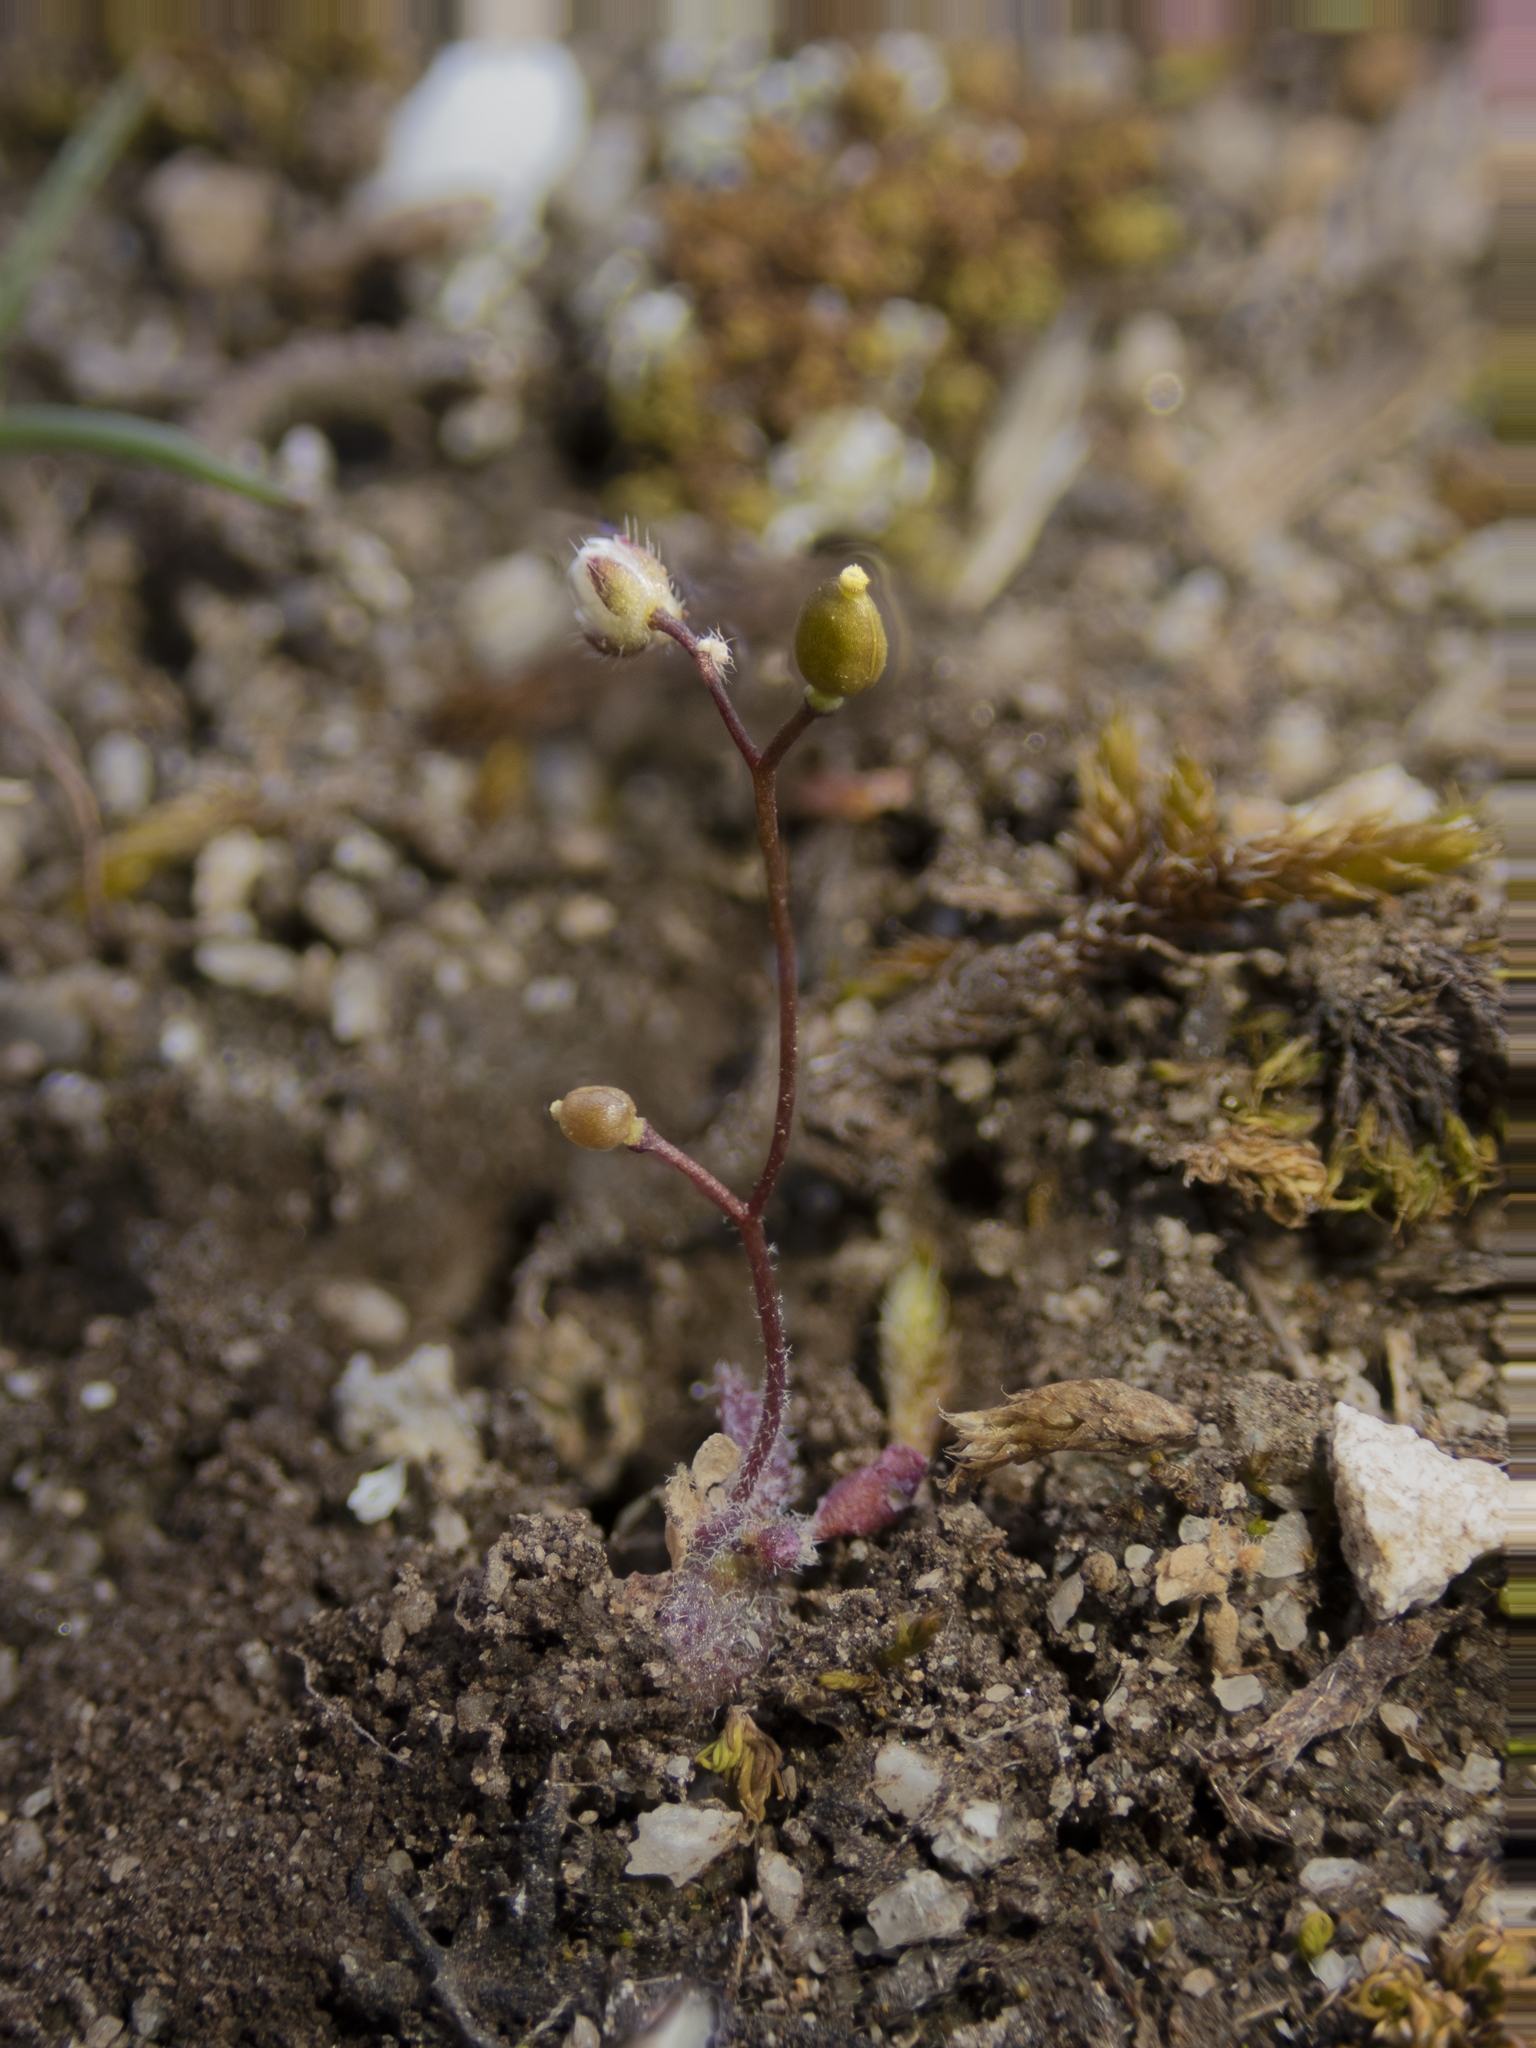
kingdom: Plantae
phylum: Tracheophyta
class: Magnoliopsida
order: Brassicales
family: Brassicaceae
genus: Draba
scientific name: Draba verna
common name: Spring draba
